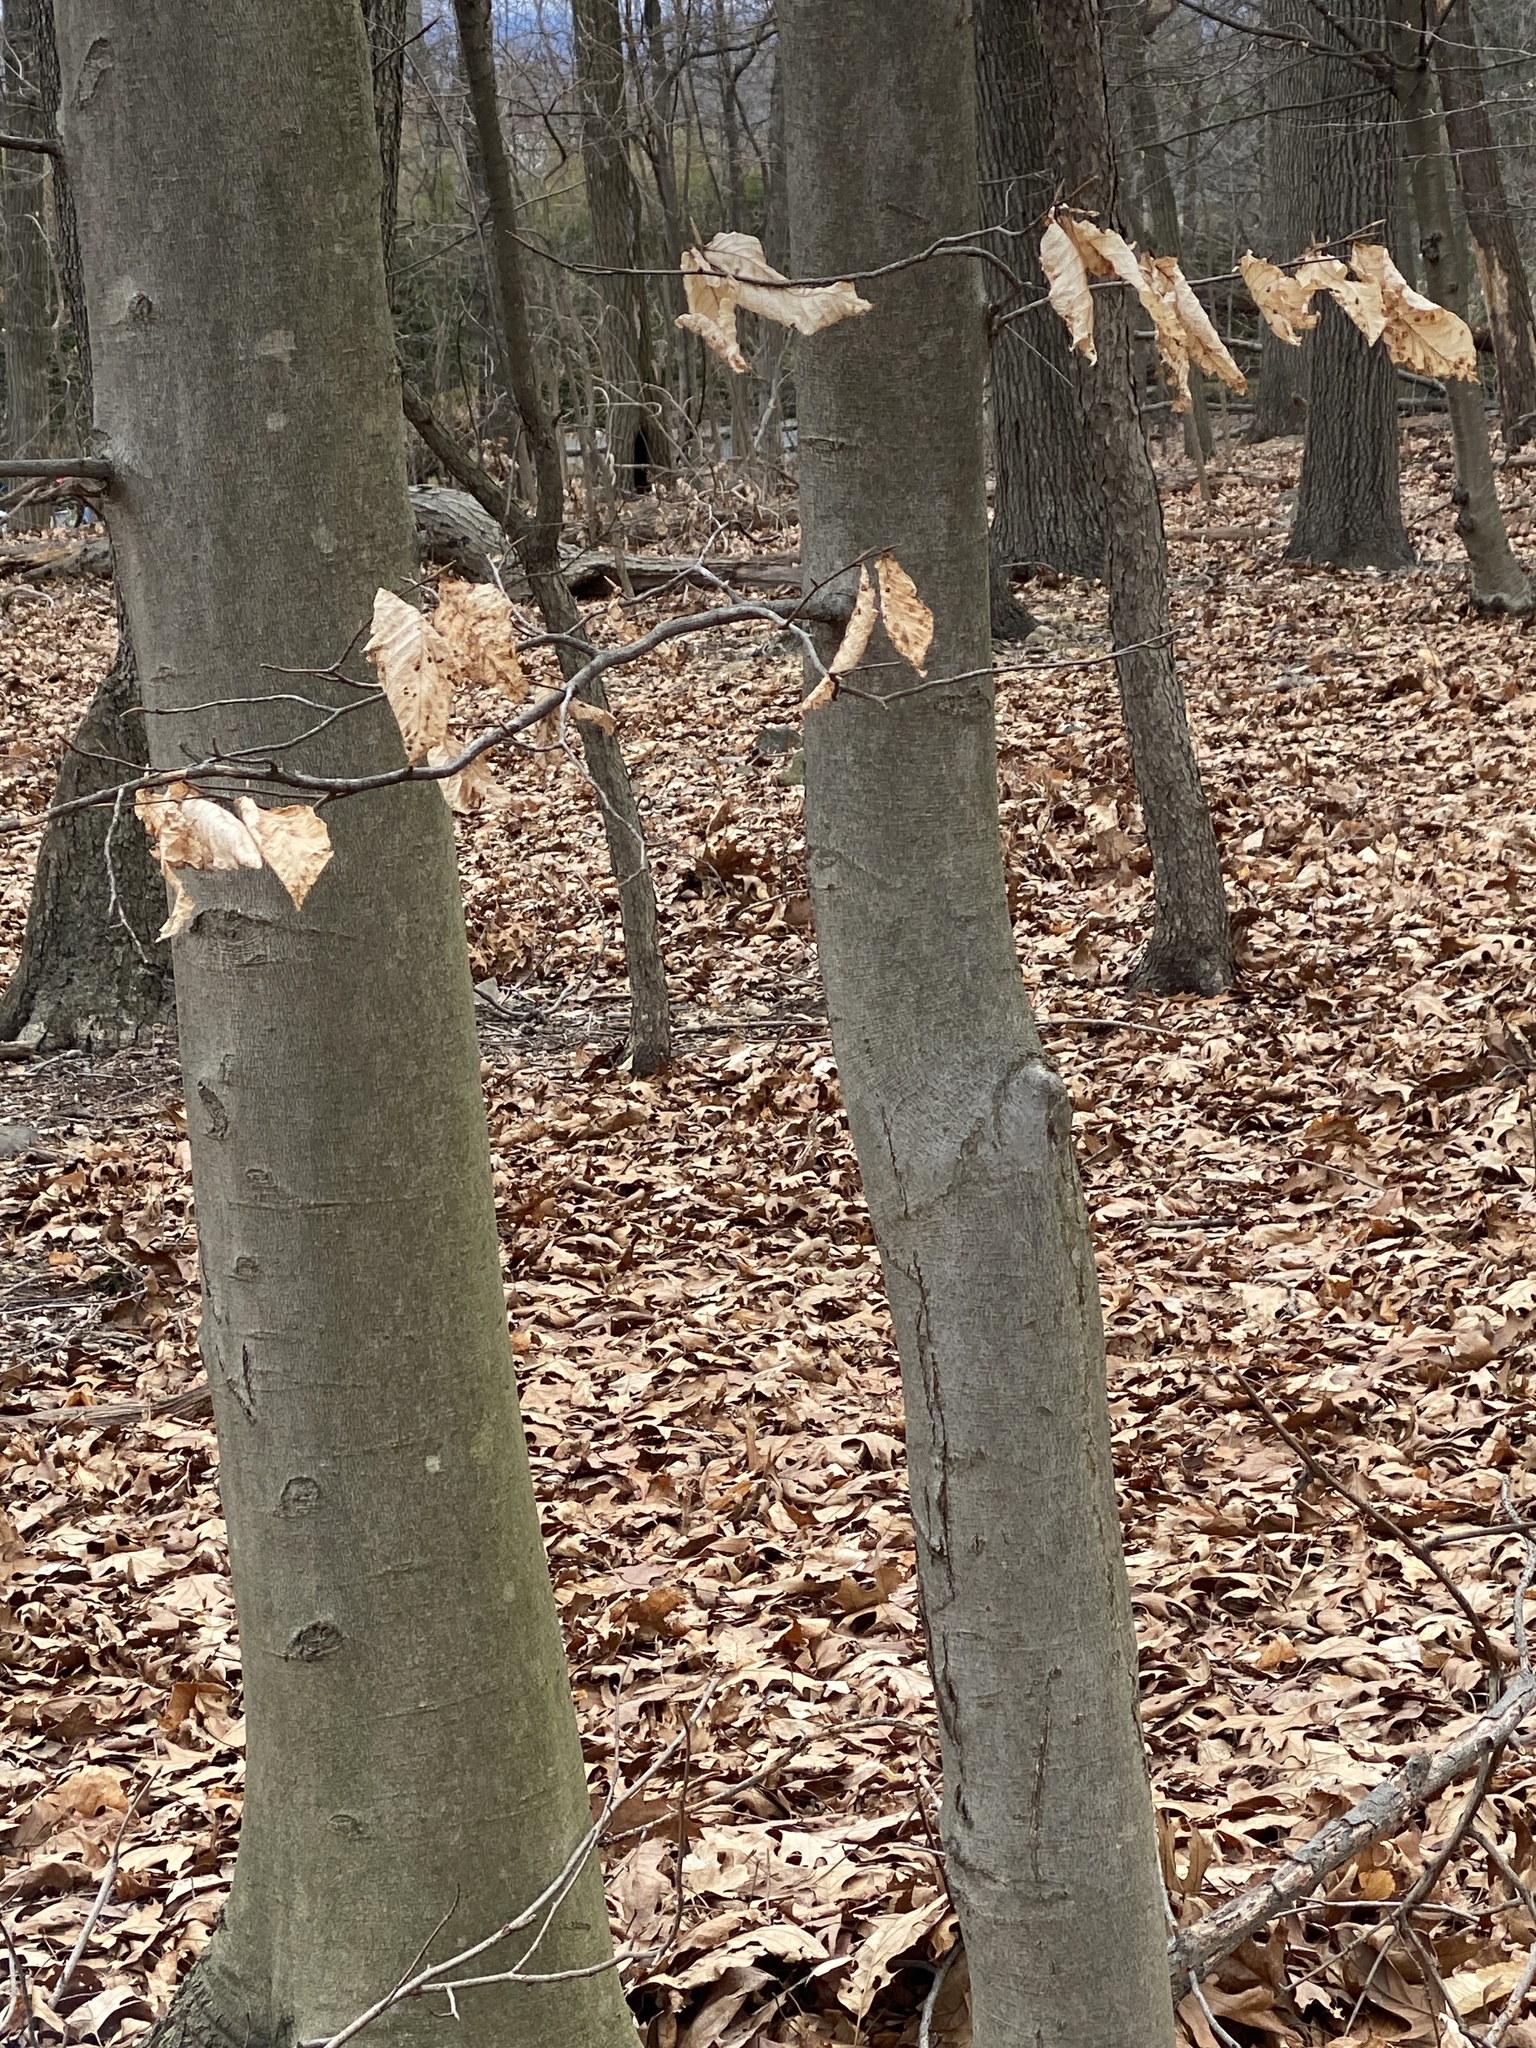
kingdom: Plantae
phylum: Tracheophyta
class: Magnoliopsida
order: Fagales
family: Fagaceae
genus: Fagus
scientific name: Fagus grandifolia
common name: American beech
